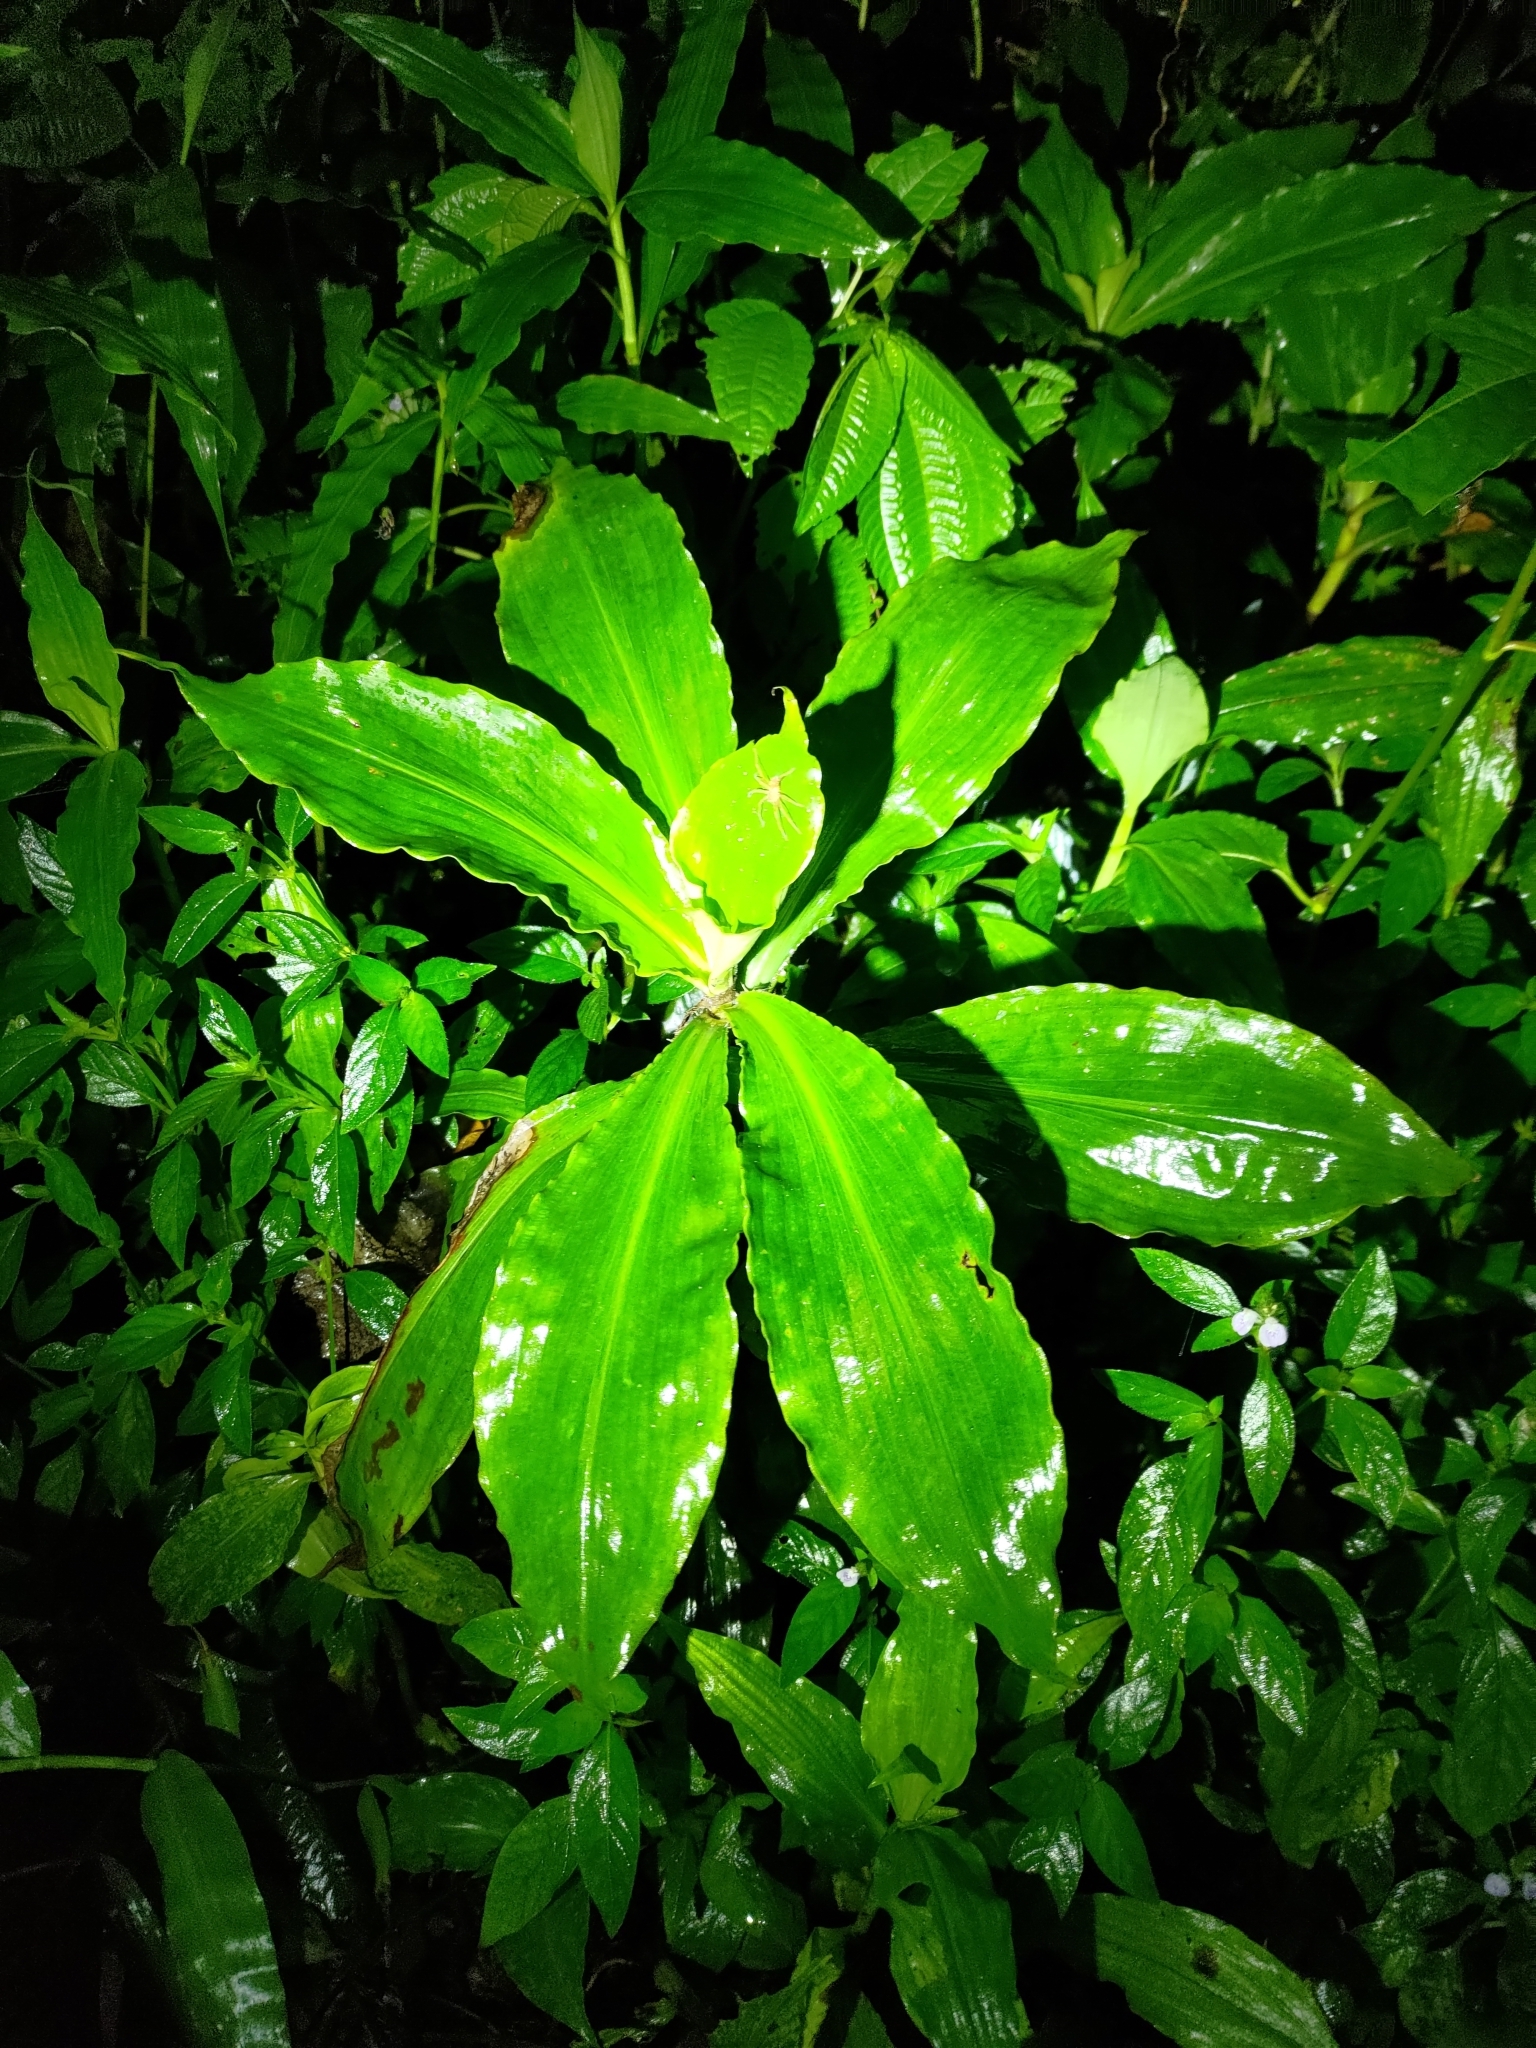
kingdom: Plantae
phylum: Tracheophyta
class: Liliopsida
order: Commelinales
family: Commelinaceae
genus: Amischotolype
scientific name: Amischotolype glabrata
